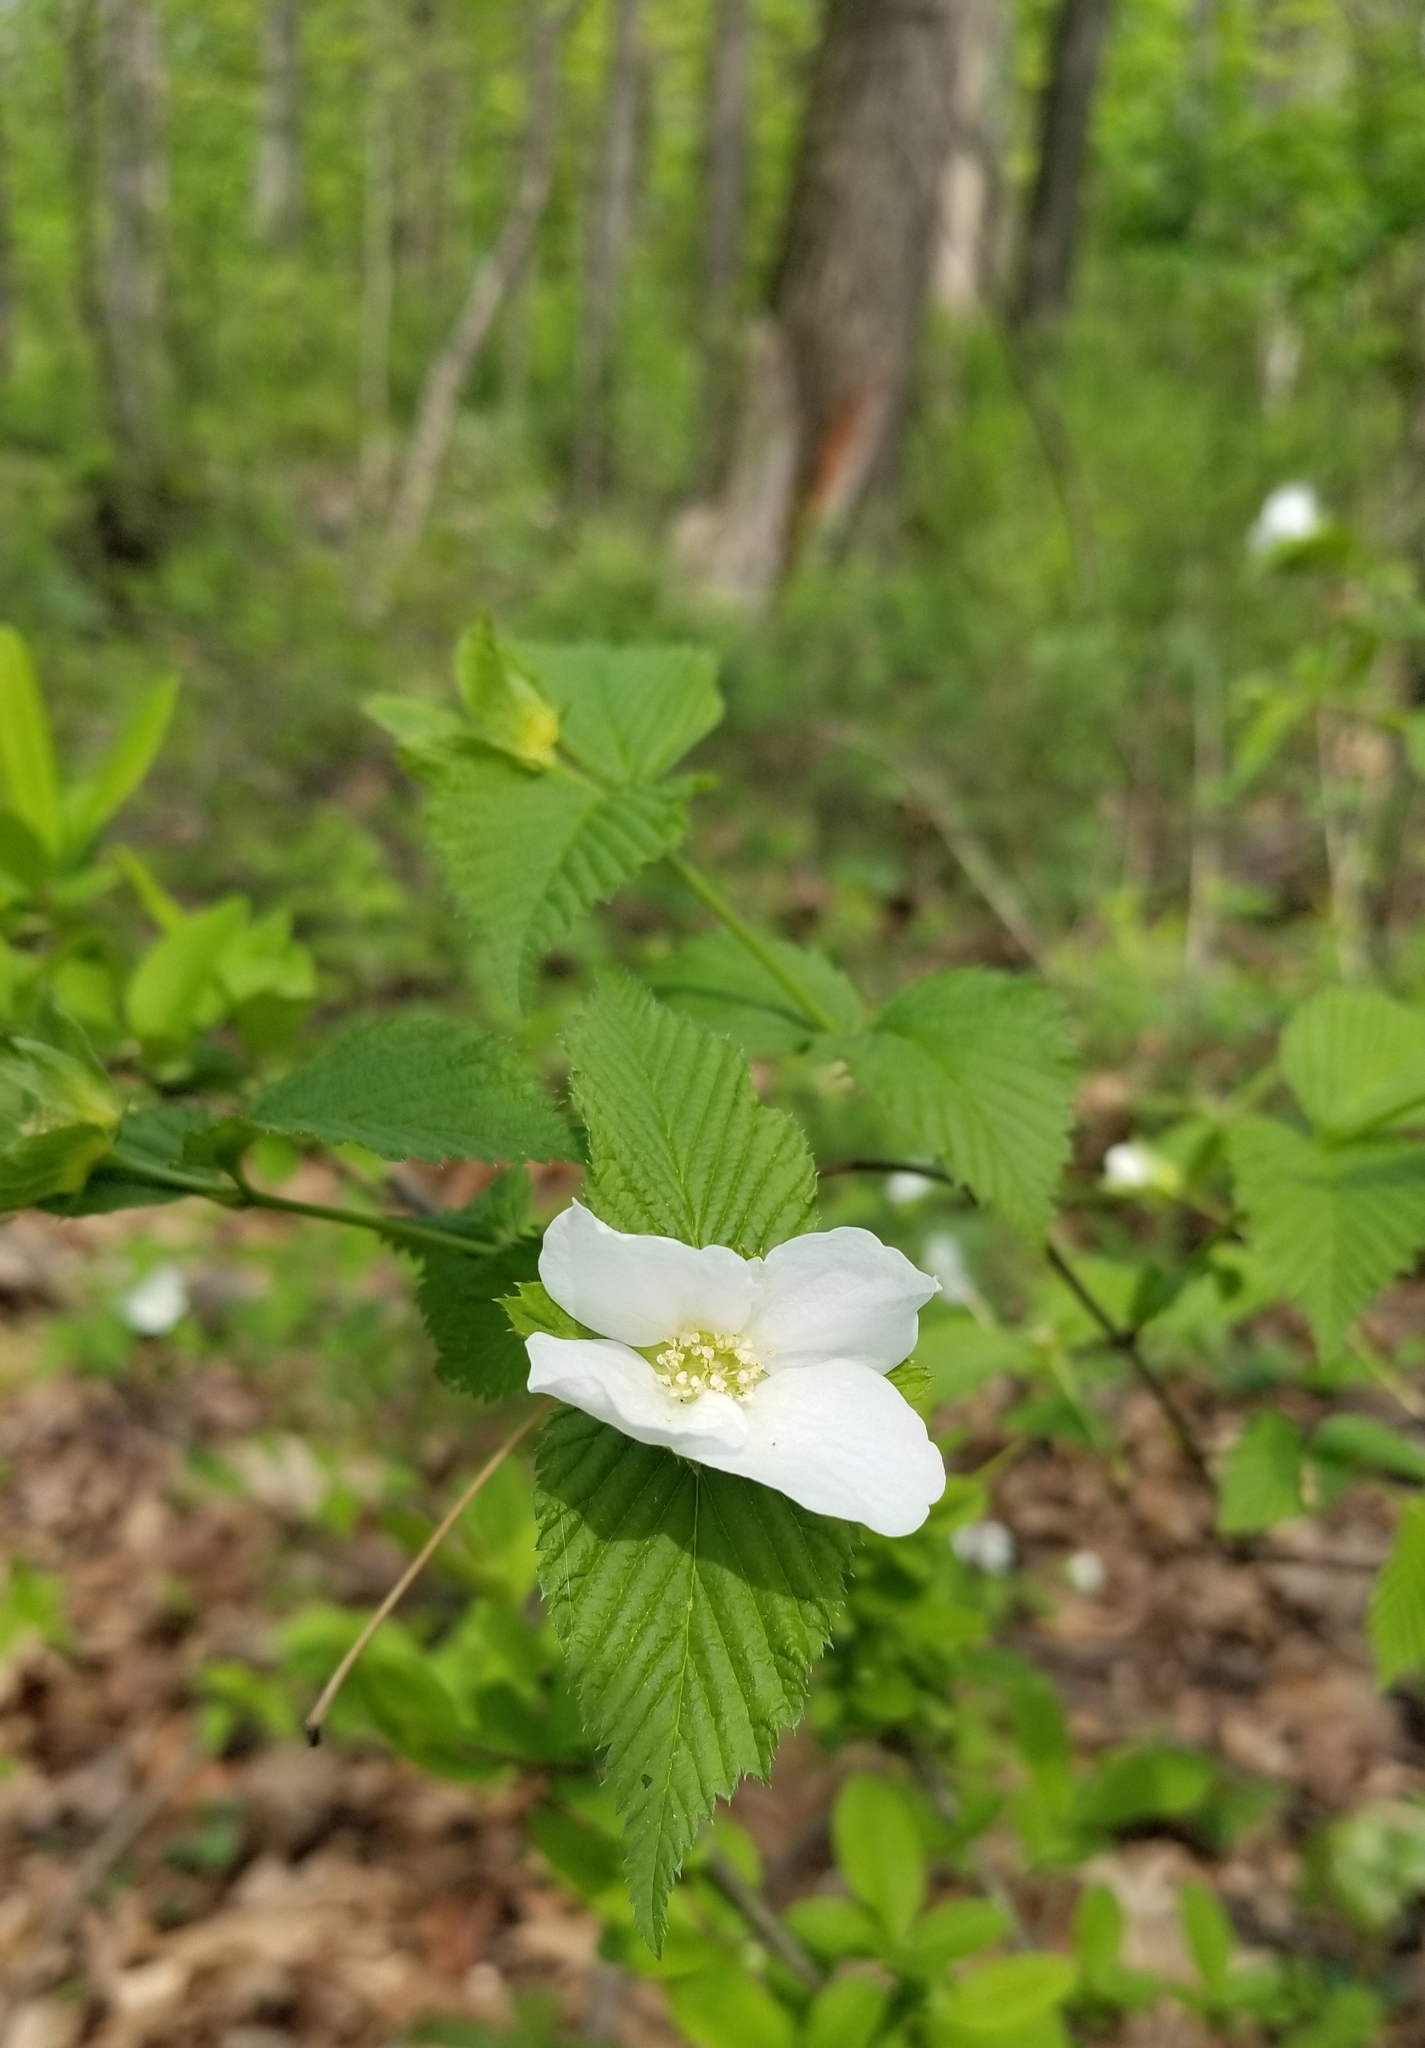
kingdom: Plantae
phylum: Tracheophyta
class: Magnoliopsida
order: Rosales
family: Rosaceae
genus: Rhodotypos
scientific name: Rhodotypos scandens
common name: Jetbead
